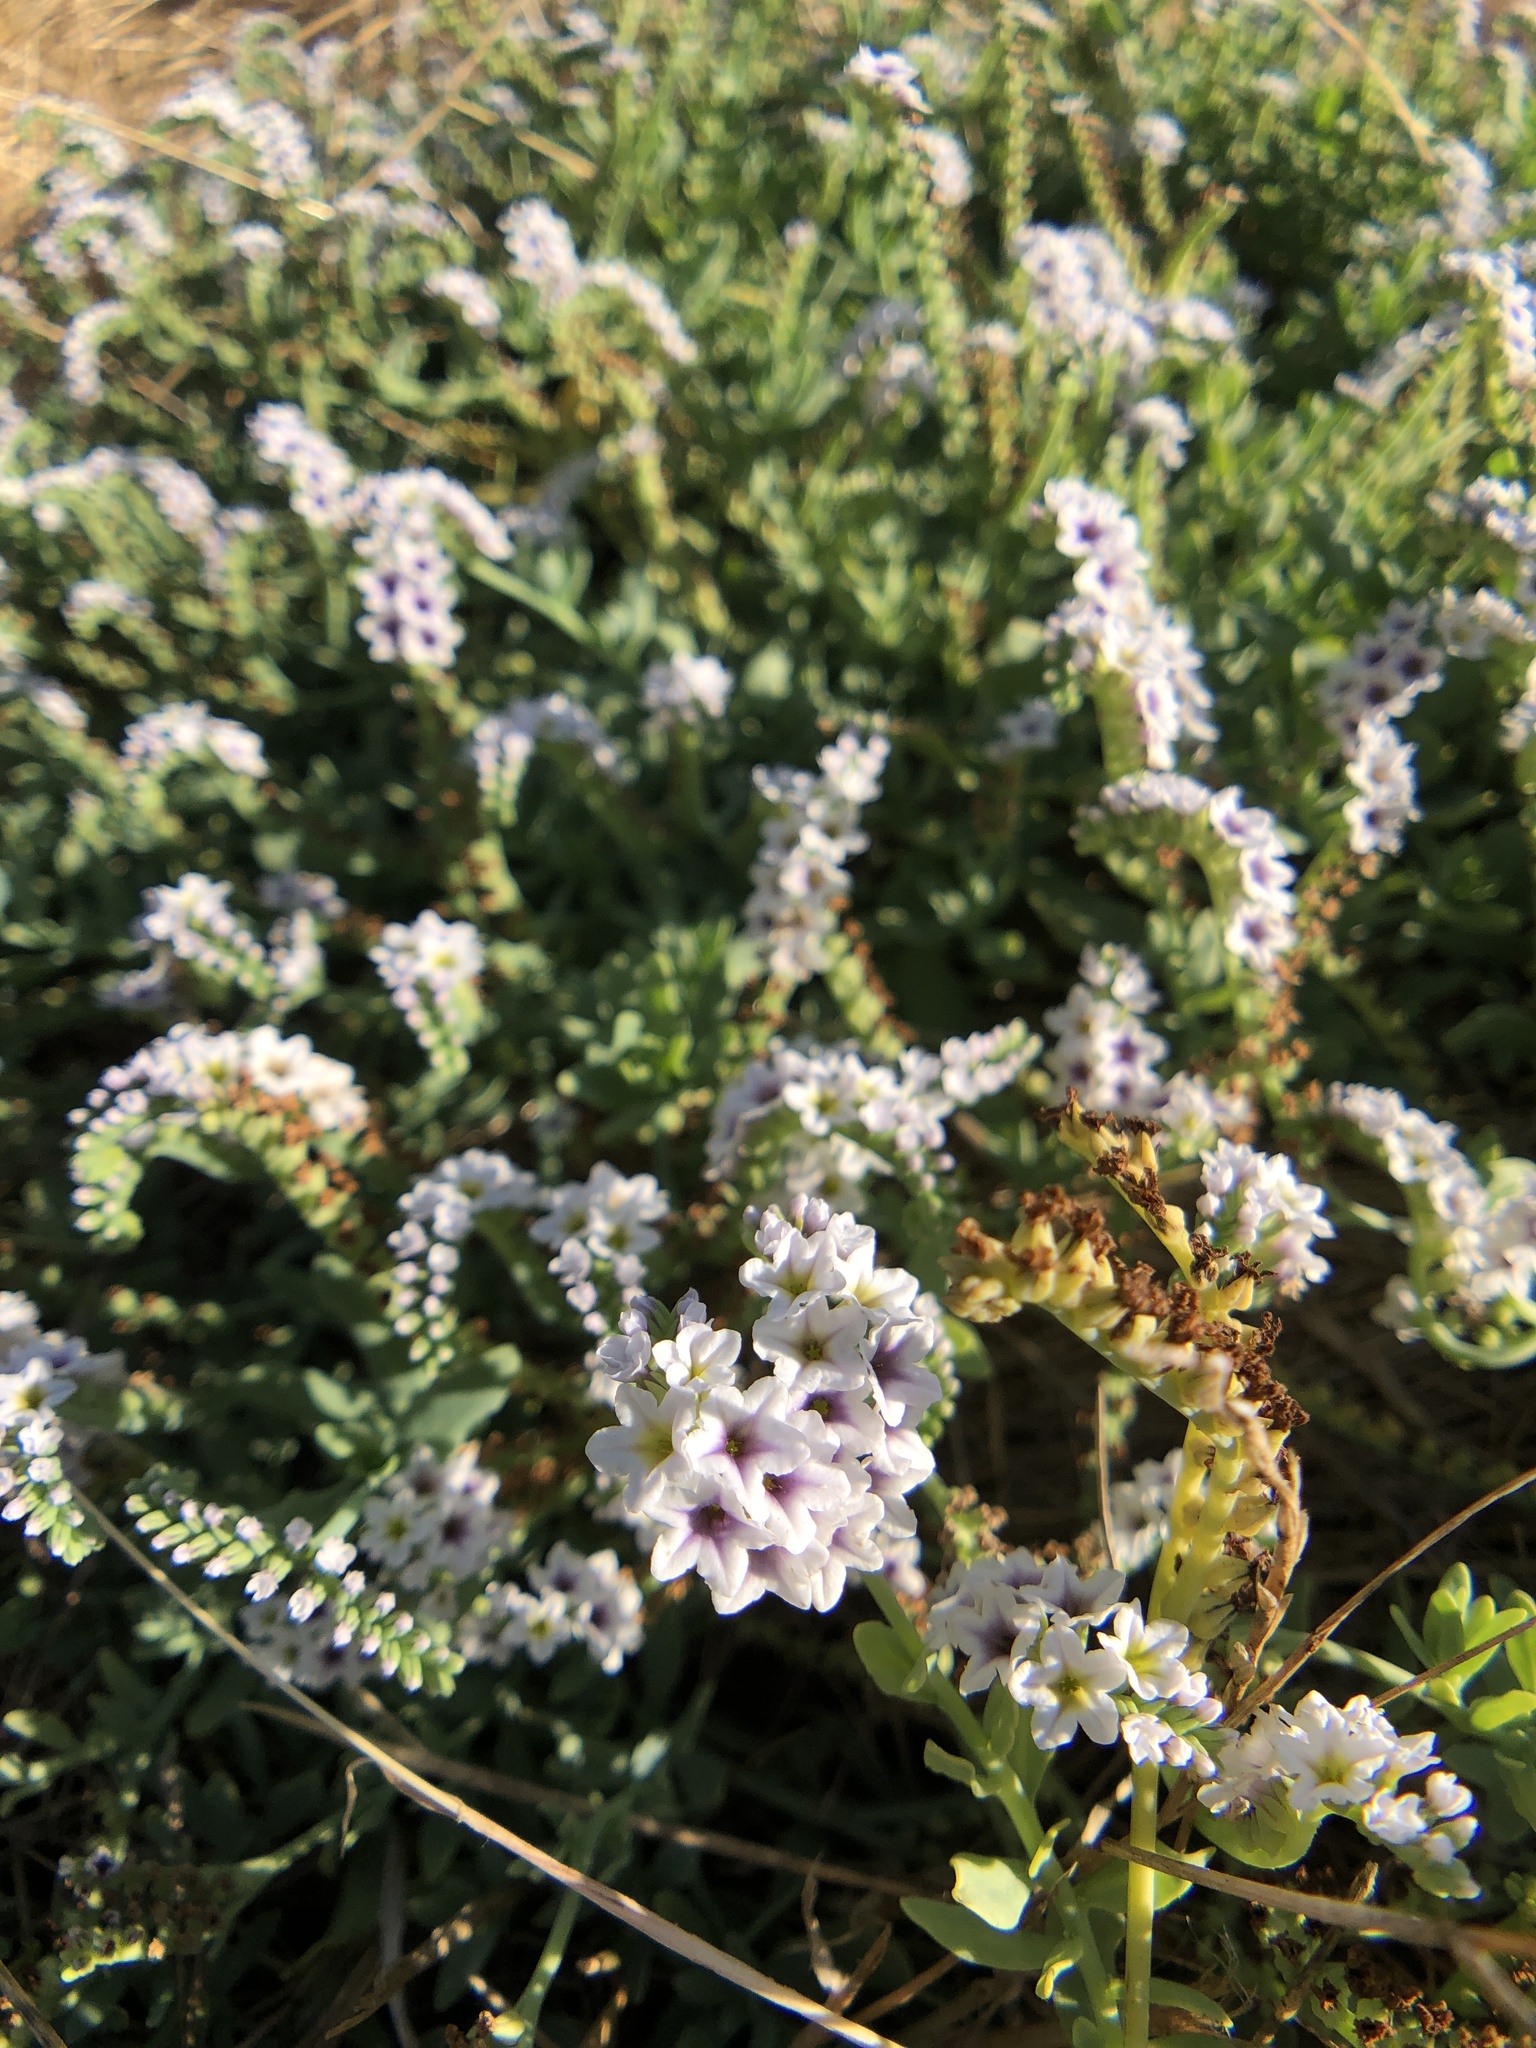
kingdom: Plantae
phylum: Tracheophyta
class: Magnoliopsida
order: Boraginales
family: Heliotropiaceae
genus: Heliotropium
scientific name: Heliotropium curassavicum
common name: Seaside heliotrope
